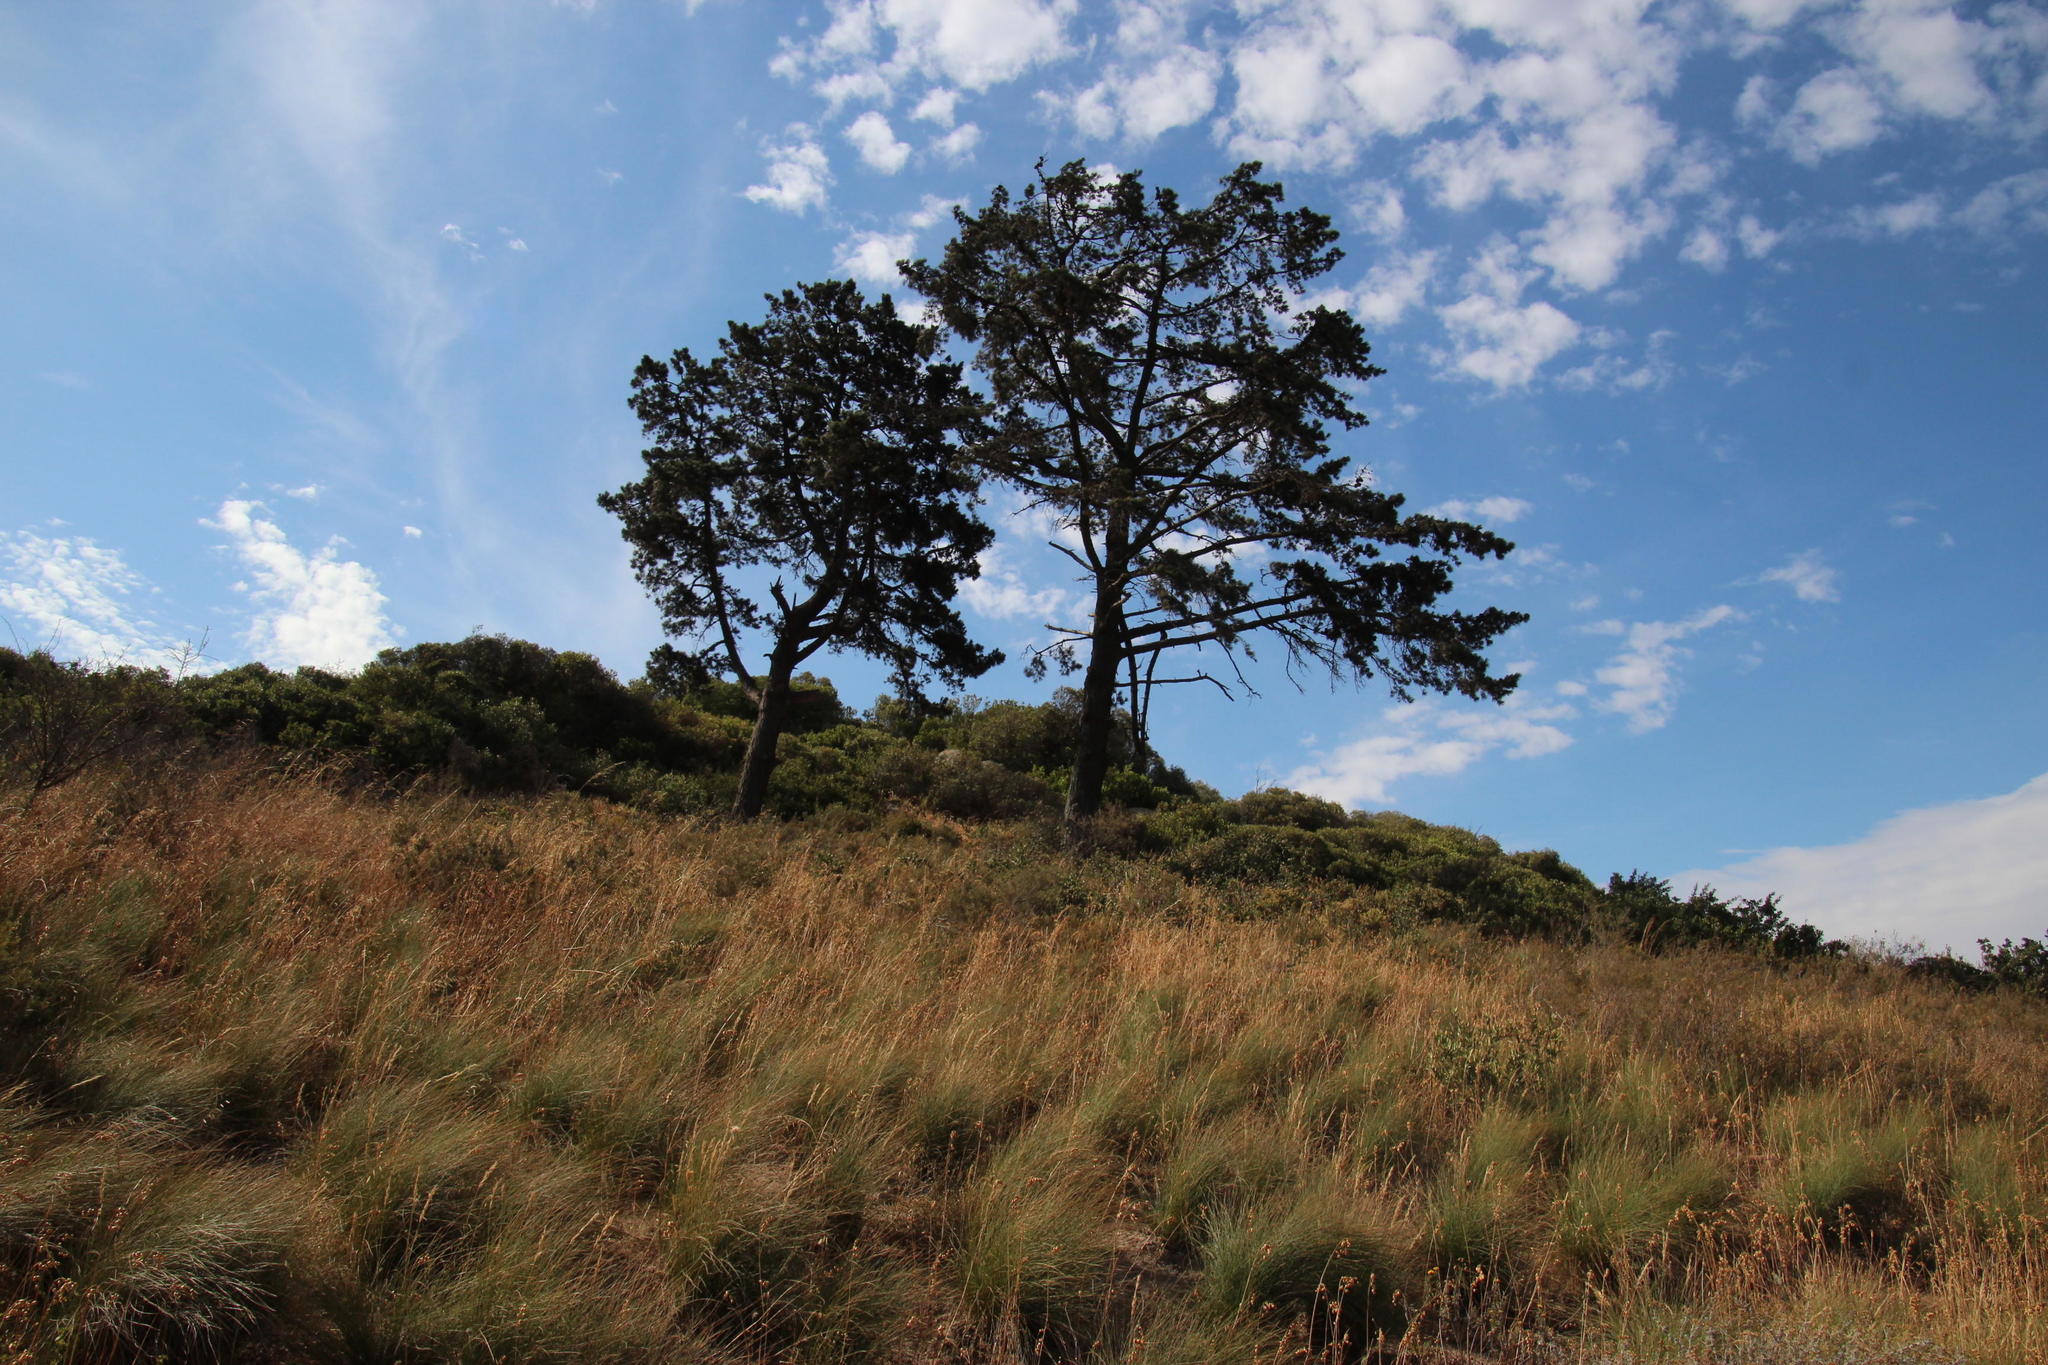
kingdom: Plantae
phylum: Tracheophyta
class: Pinopsida
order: Pinales
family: Pinaceae
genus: Pinus
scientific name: Pinus radiata
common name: Monterey pine
